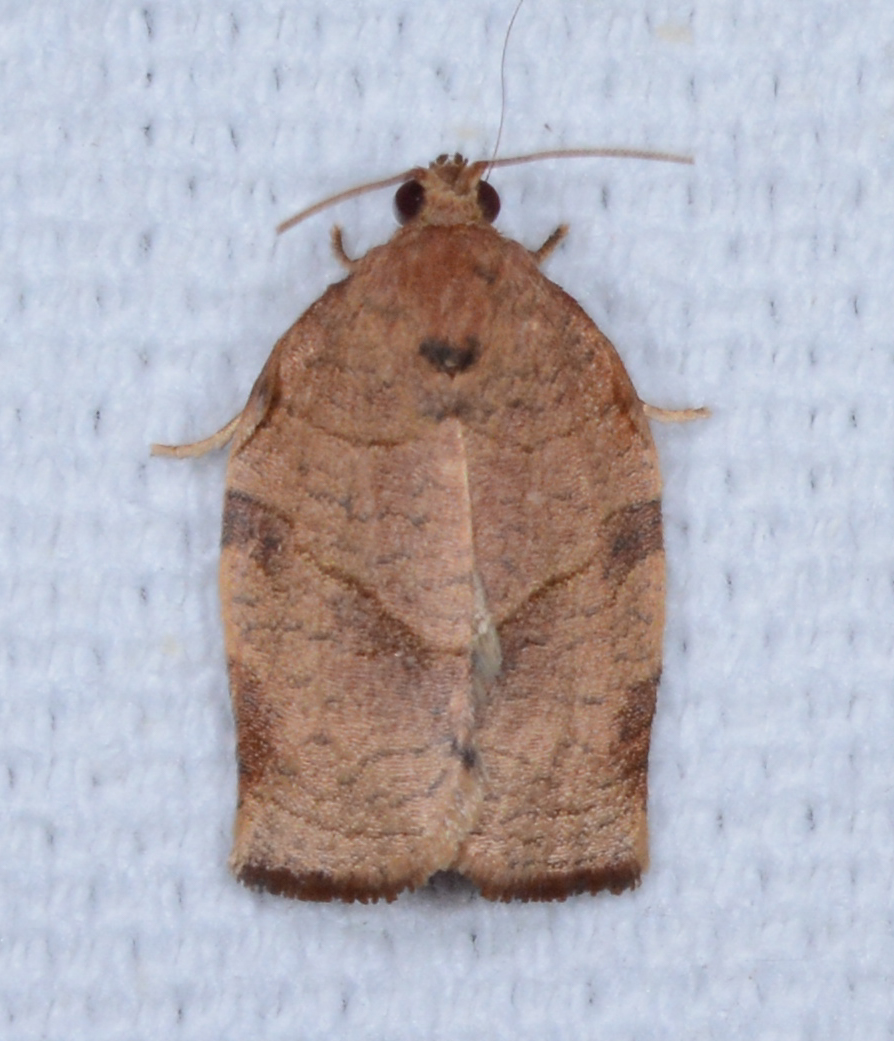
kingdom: Animalia
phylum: Arthropoda
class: Insecta
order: Lepidoptera
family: Tortricidae
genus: Choristoneura
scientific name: Choristoneura rosaceana
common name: Oblique-banded leafroller moth
